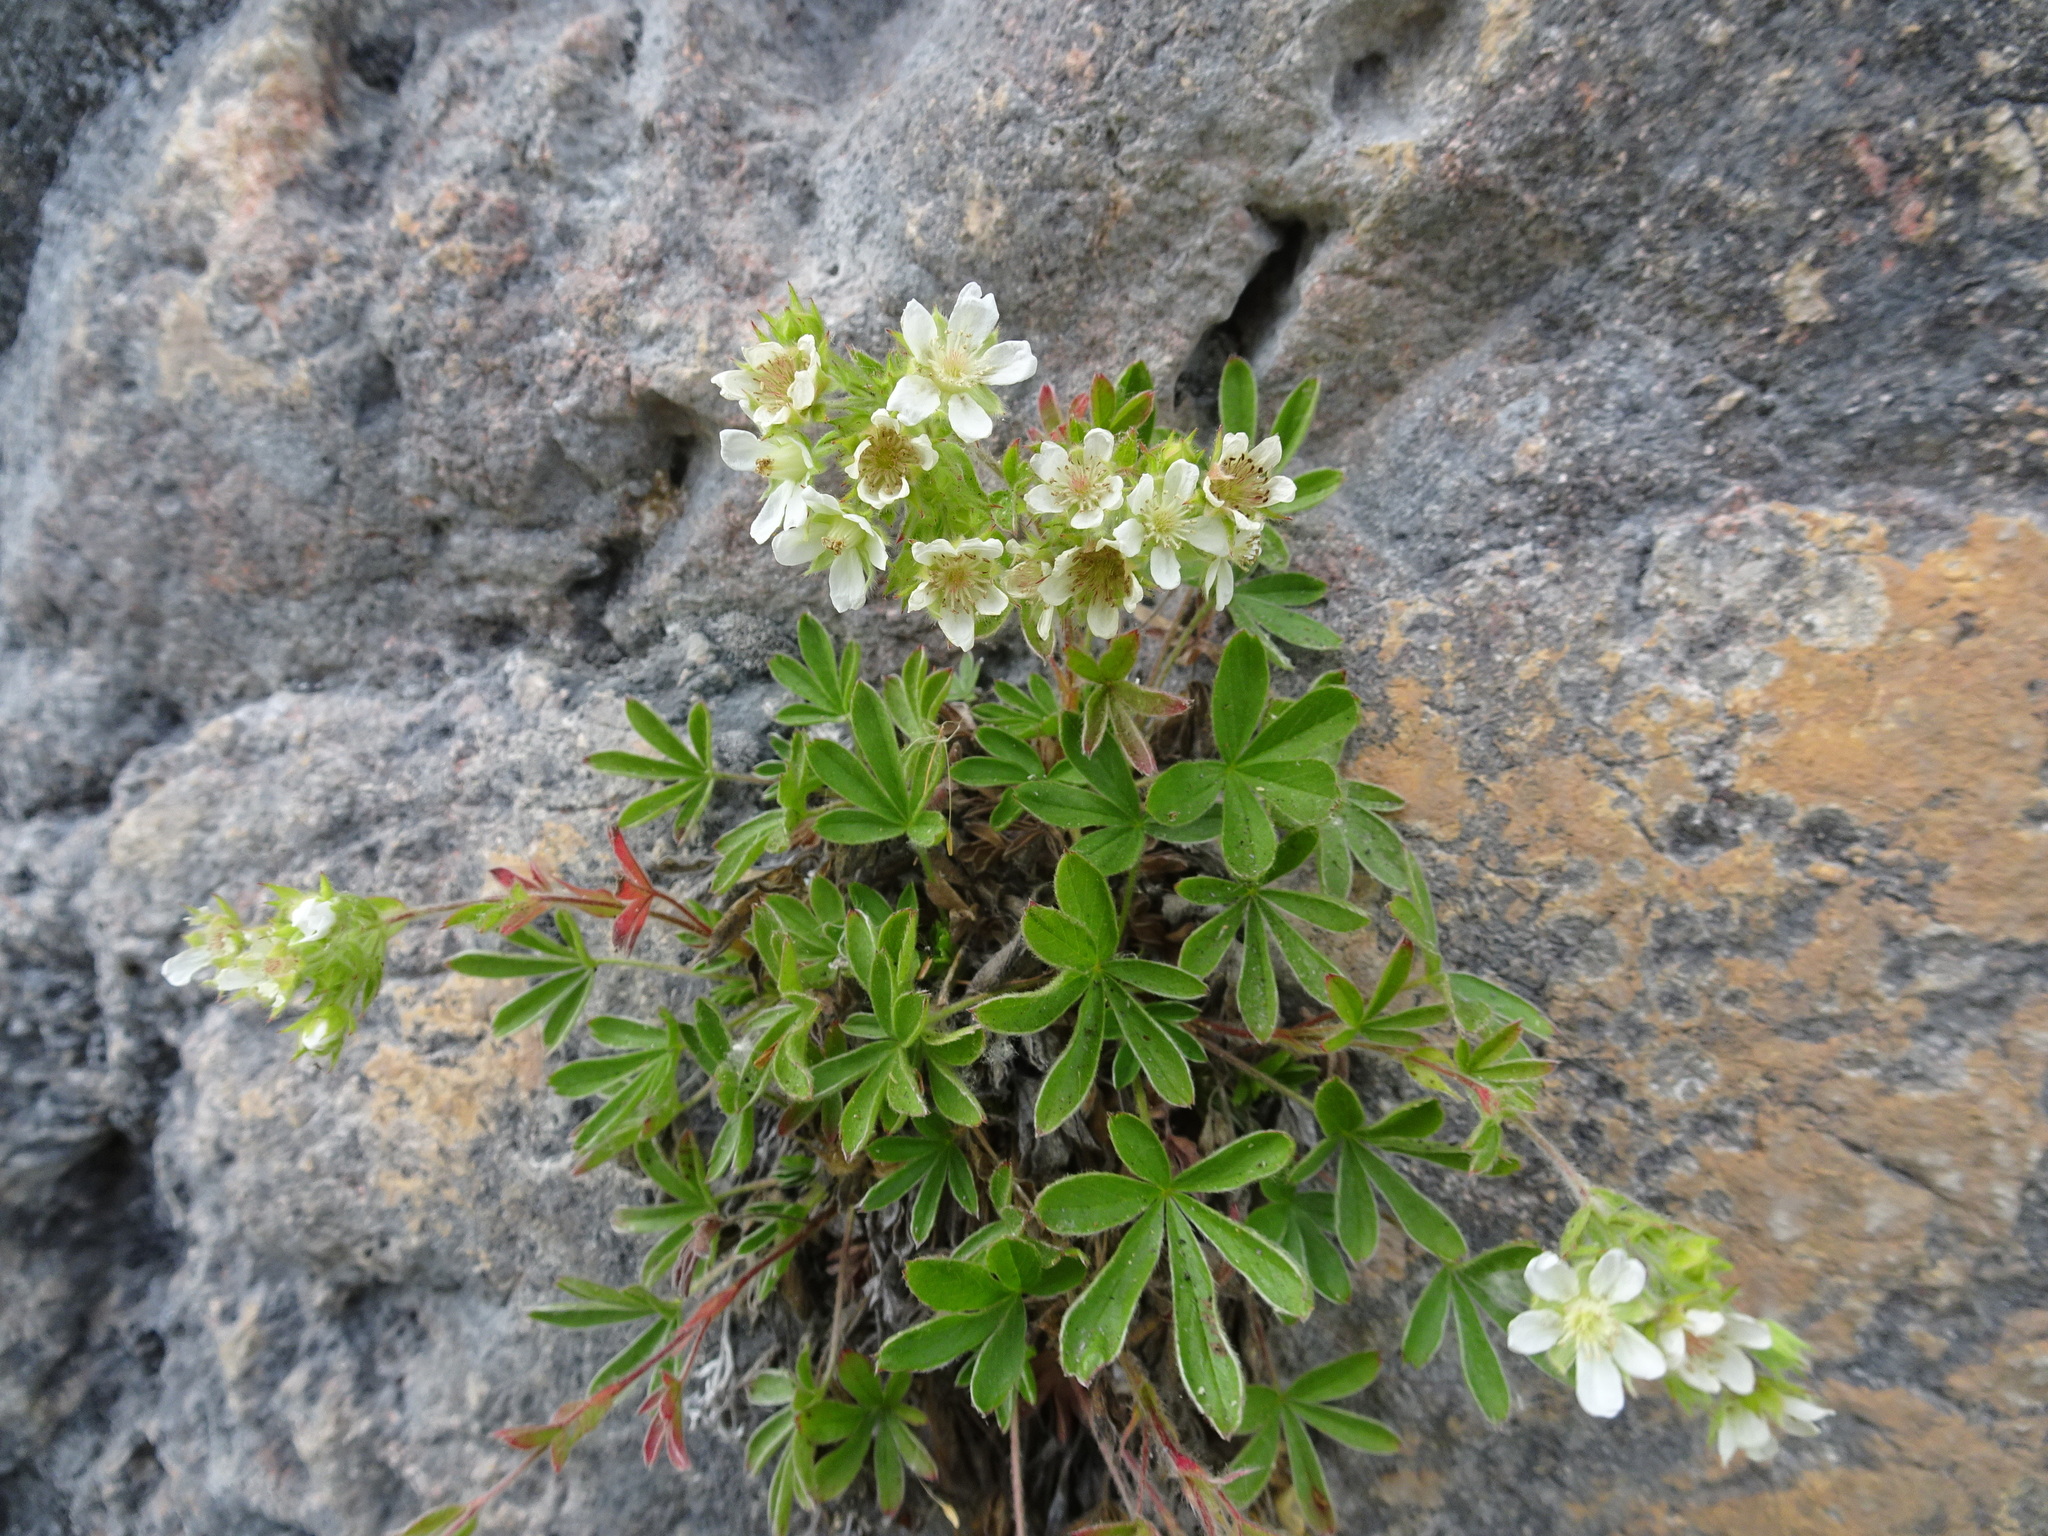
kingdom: Plantae
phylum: Tracheophyta
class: Magnoliopsida
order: Rosales
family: Rosaceae
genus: Potentilla
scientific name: Potentilla caulescens
